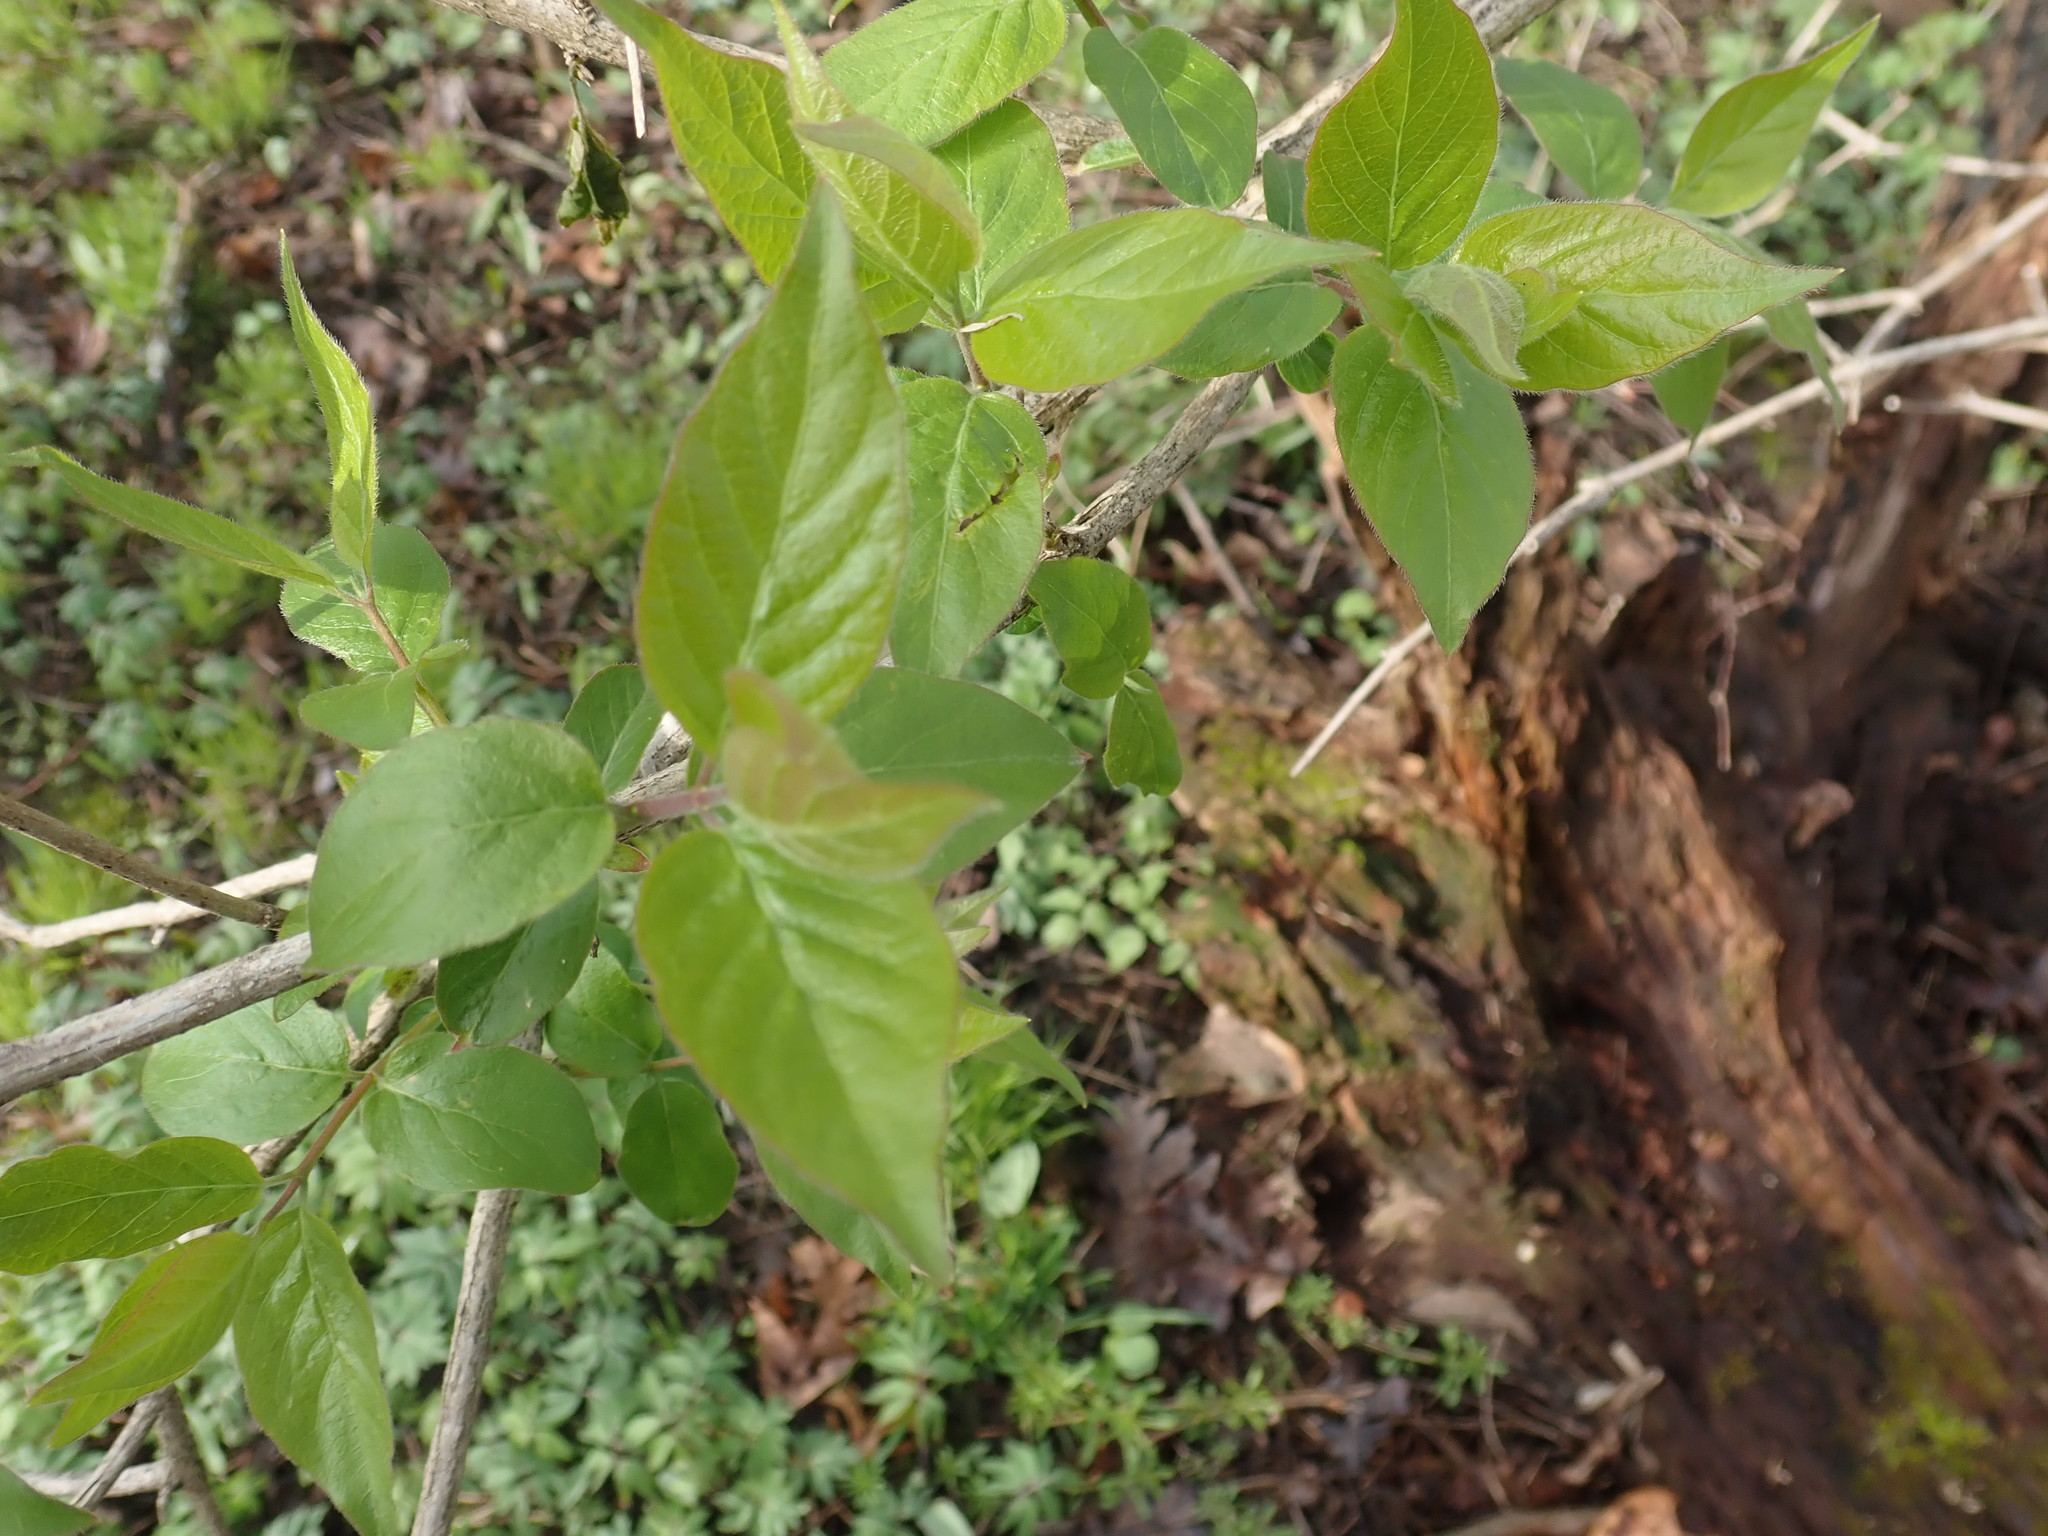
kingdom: Plantae
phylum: Tracheophyta
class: Magnoliopsida
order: Dipsacales
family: Caprifoliaceae
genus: Lonicera
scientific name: Lonicera maackii
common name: Amur honeysuckle
